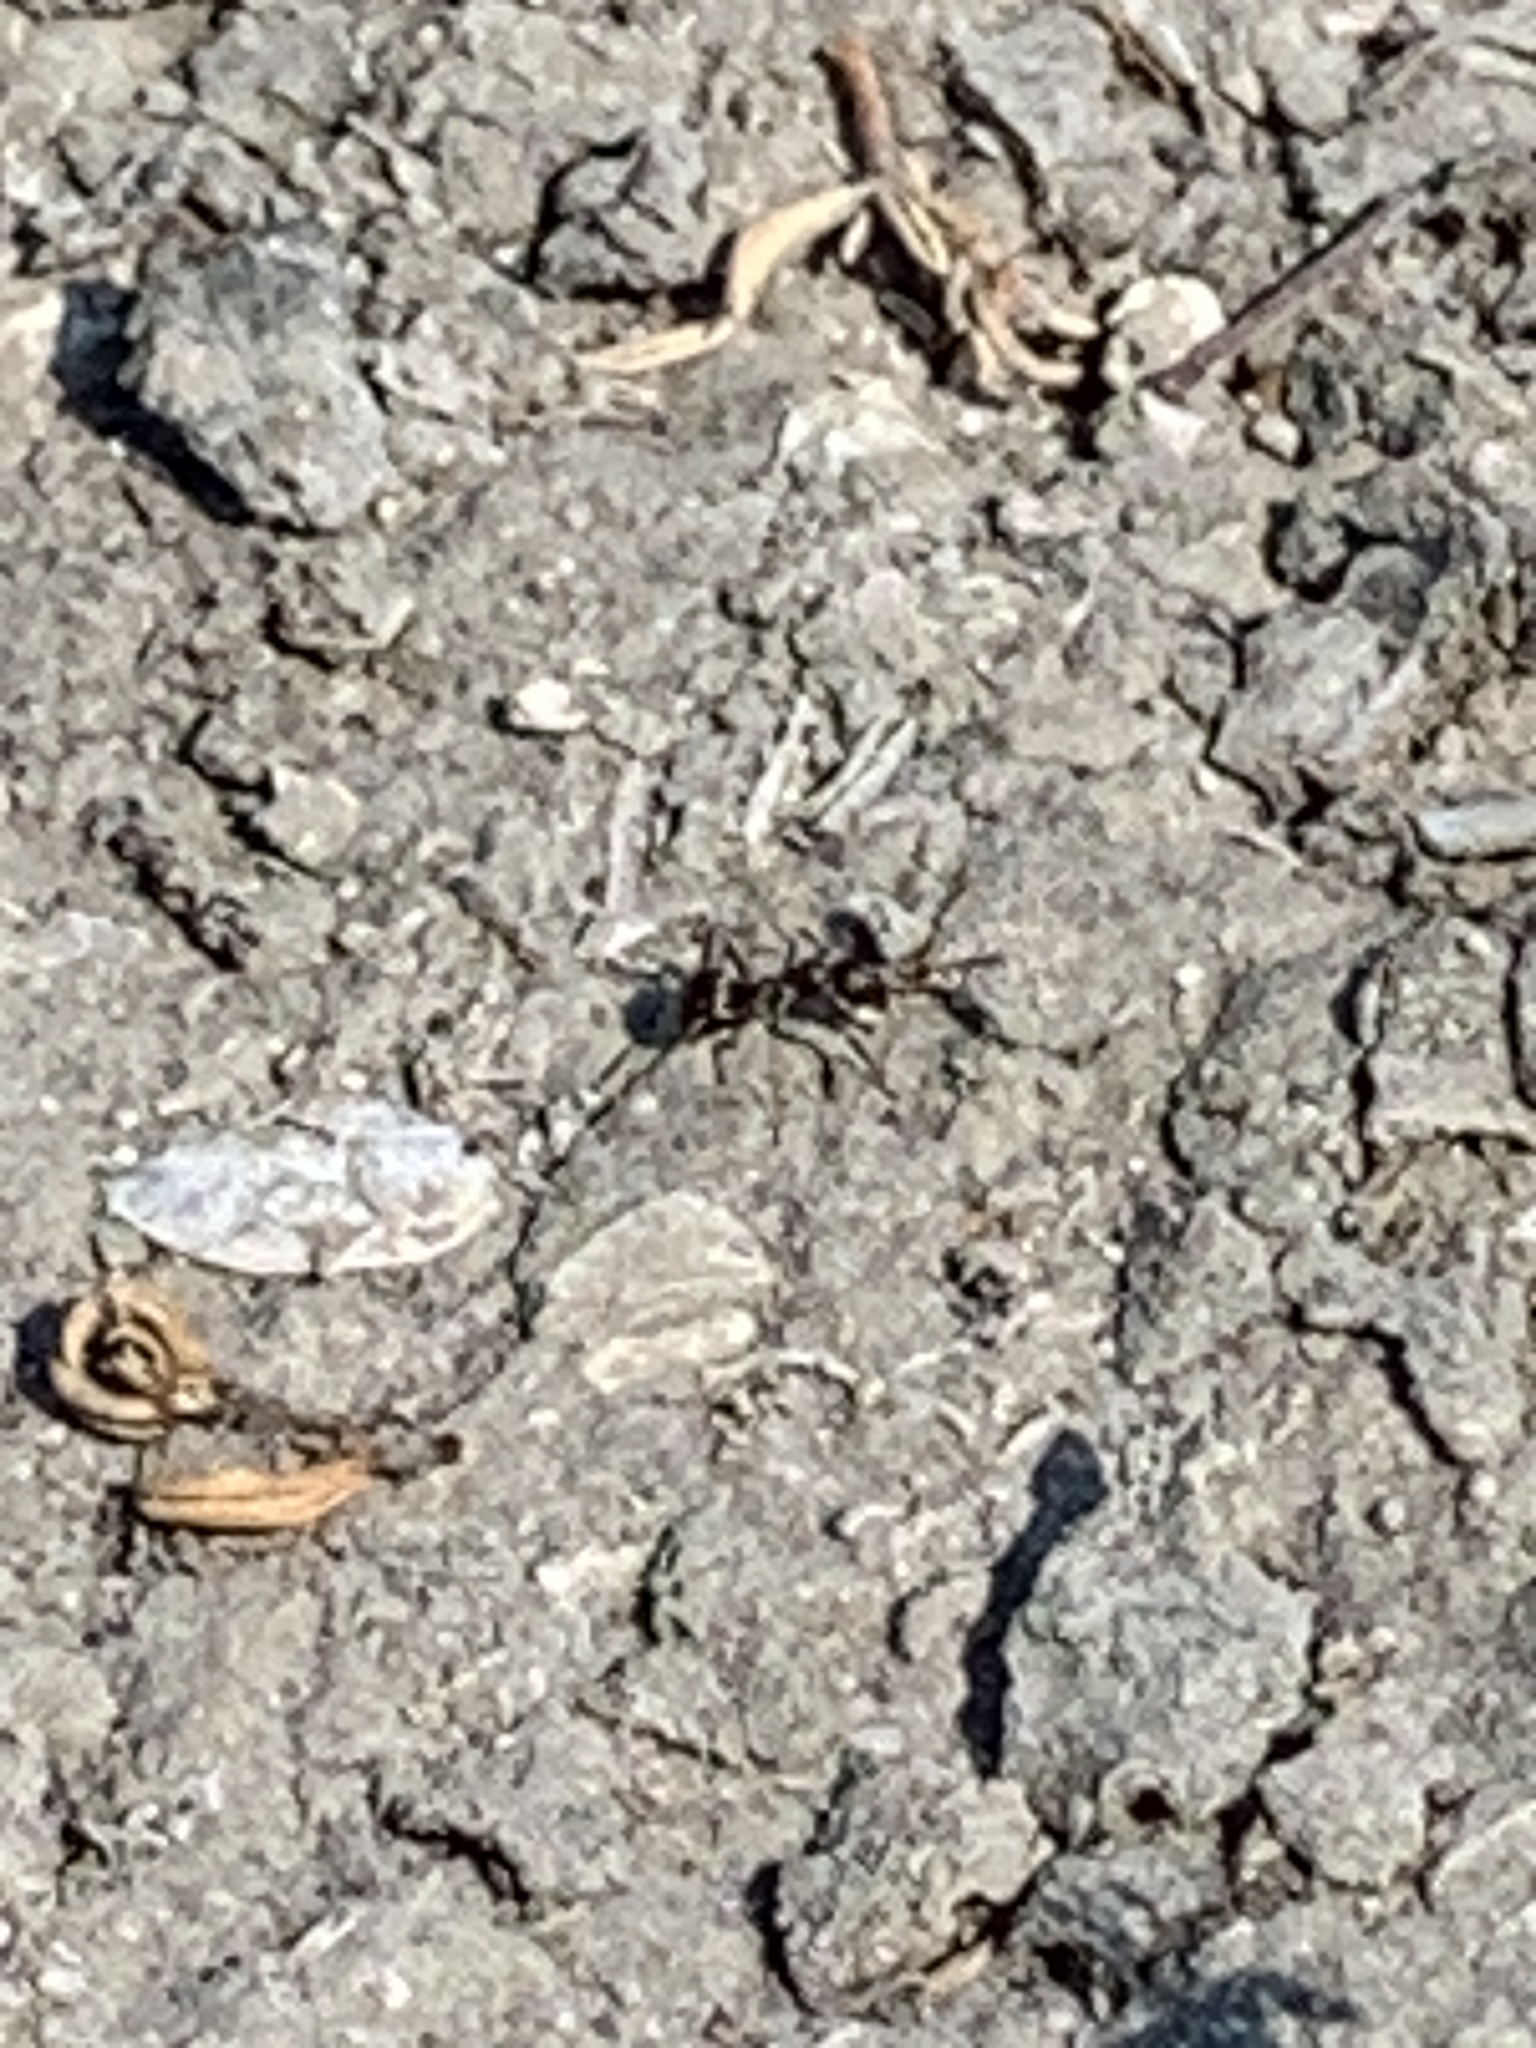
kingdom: Animalia
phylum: Arthropoda
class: Insecta
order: Hymenoptera
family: Formicidae
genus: Linepithema
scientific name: Linepithema humile
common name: Argentine ant
